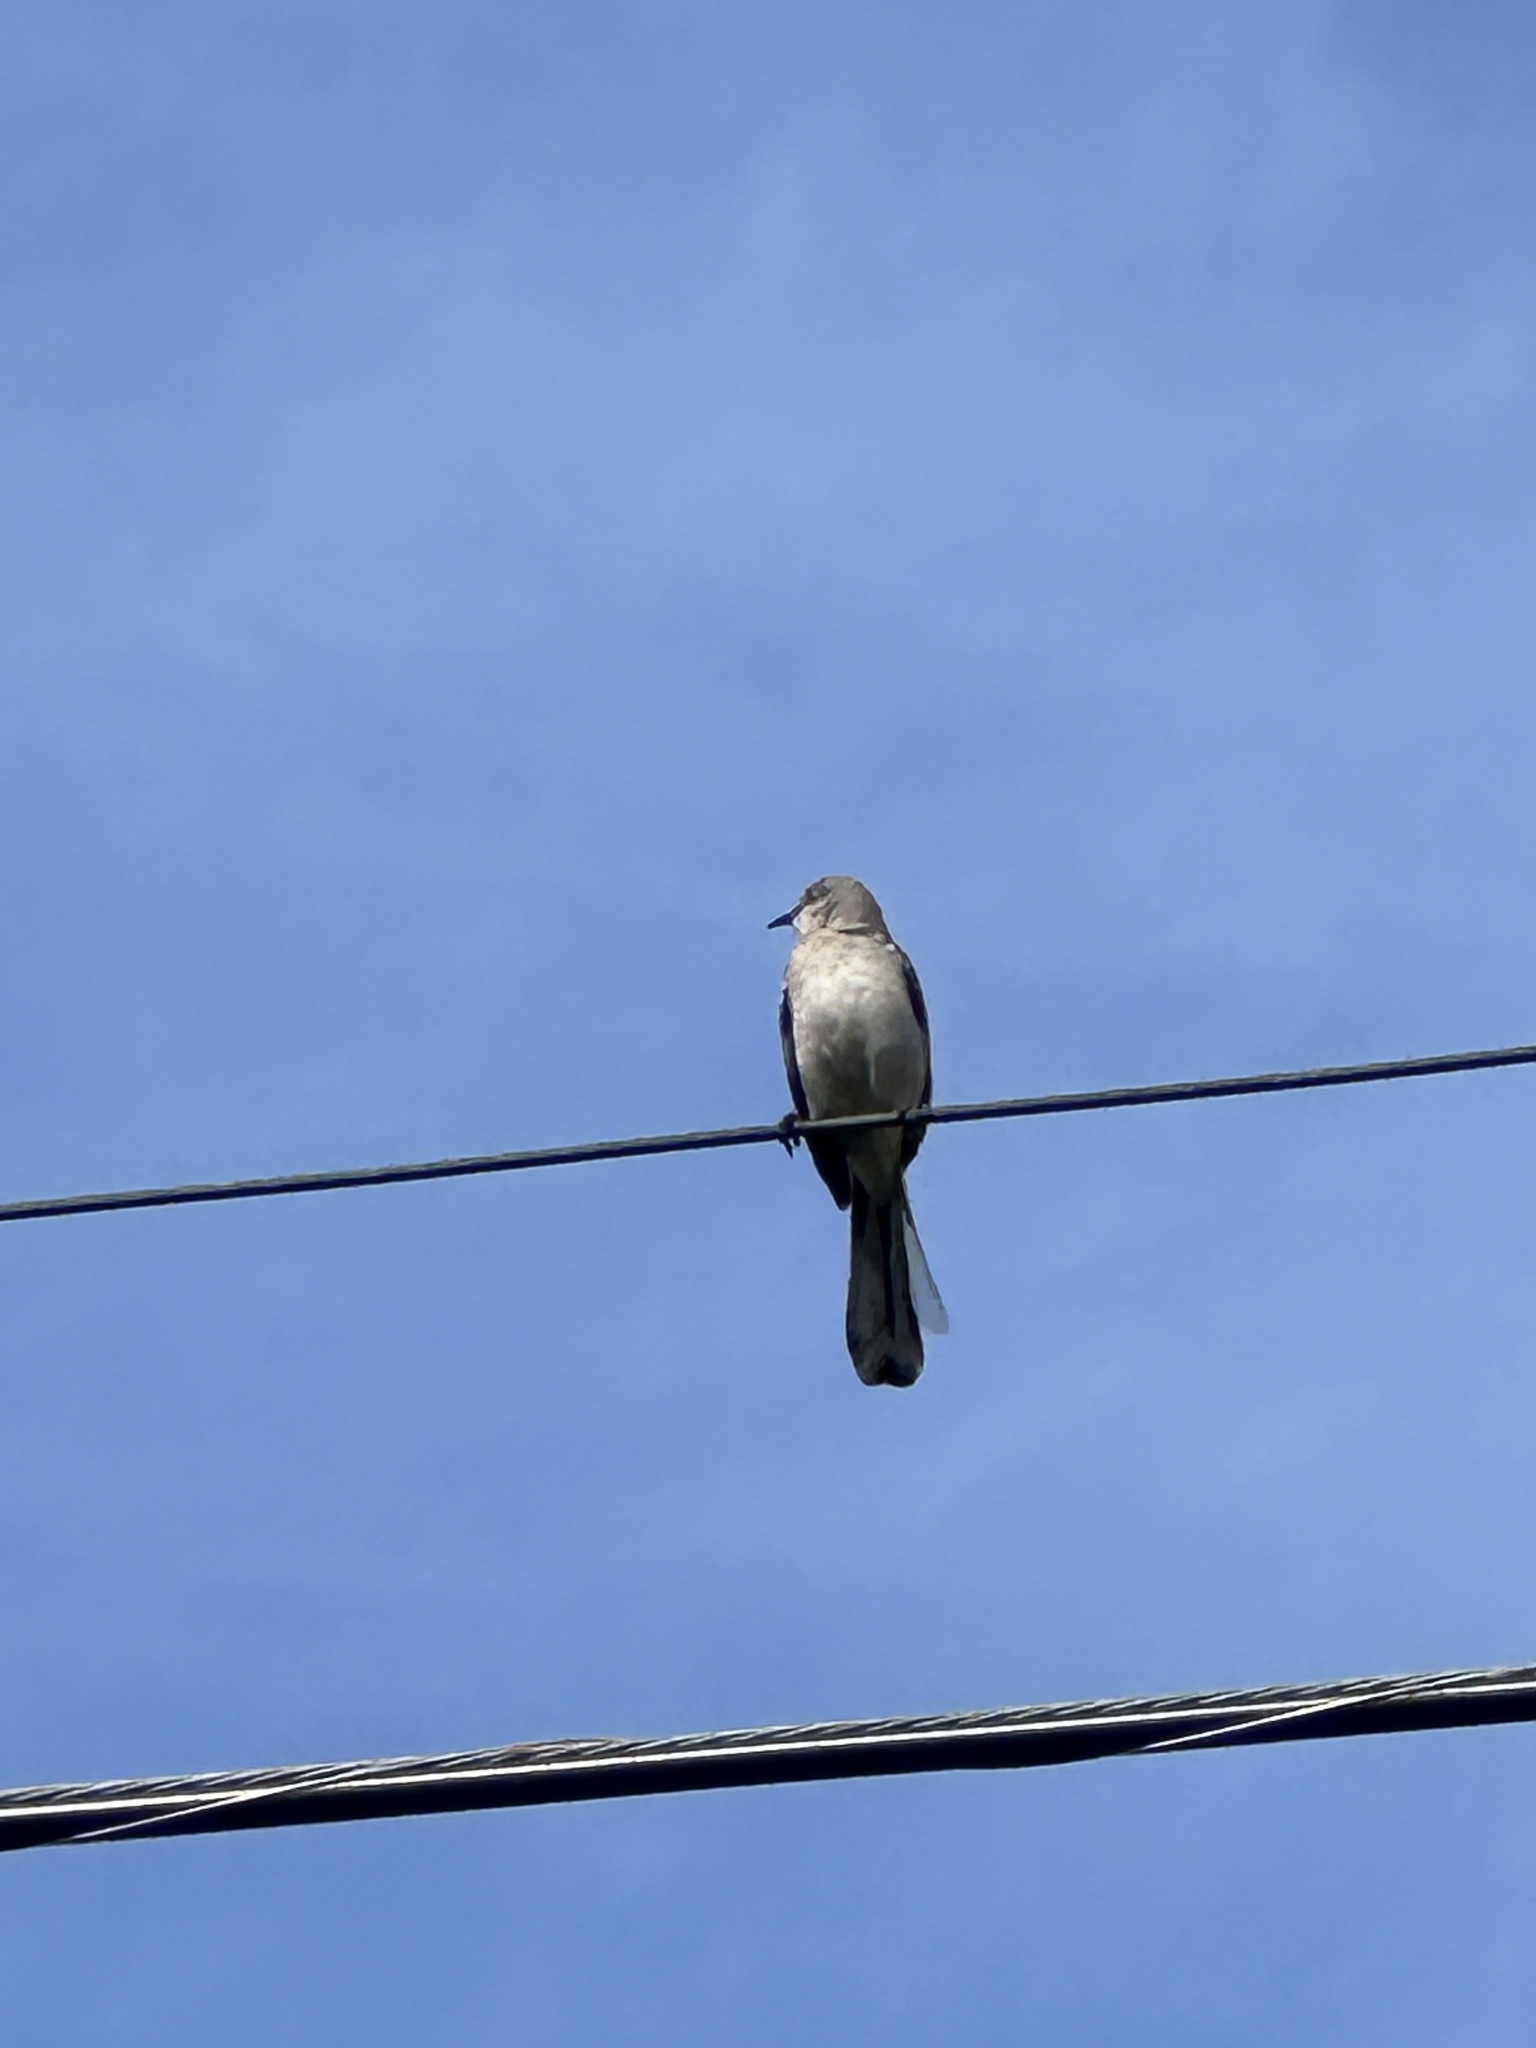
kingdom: Animalia
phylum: Chordata
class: Aves
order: Passeriformes
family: Mimidae
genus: Mimus
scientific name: Mimus polyglottos
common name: Northern mockingbird
